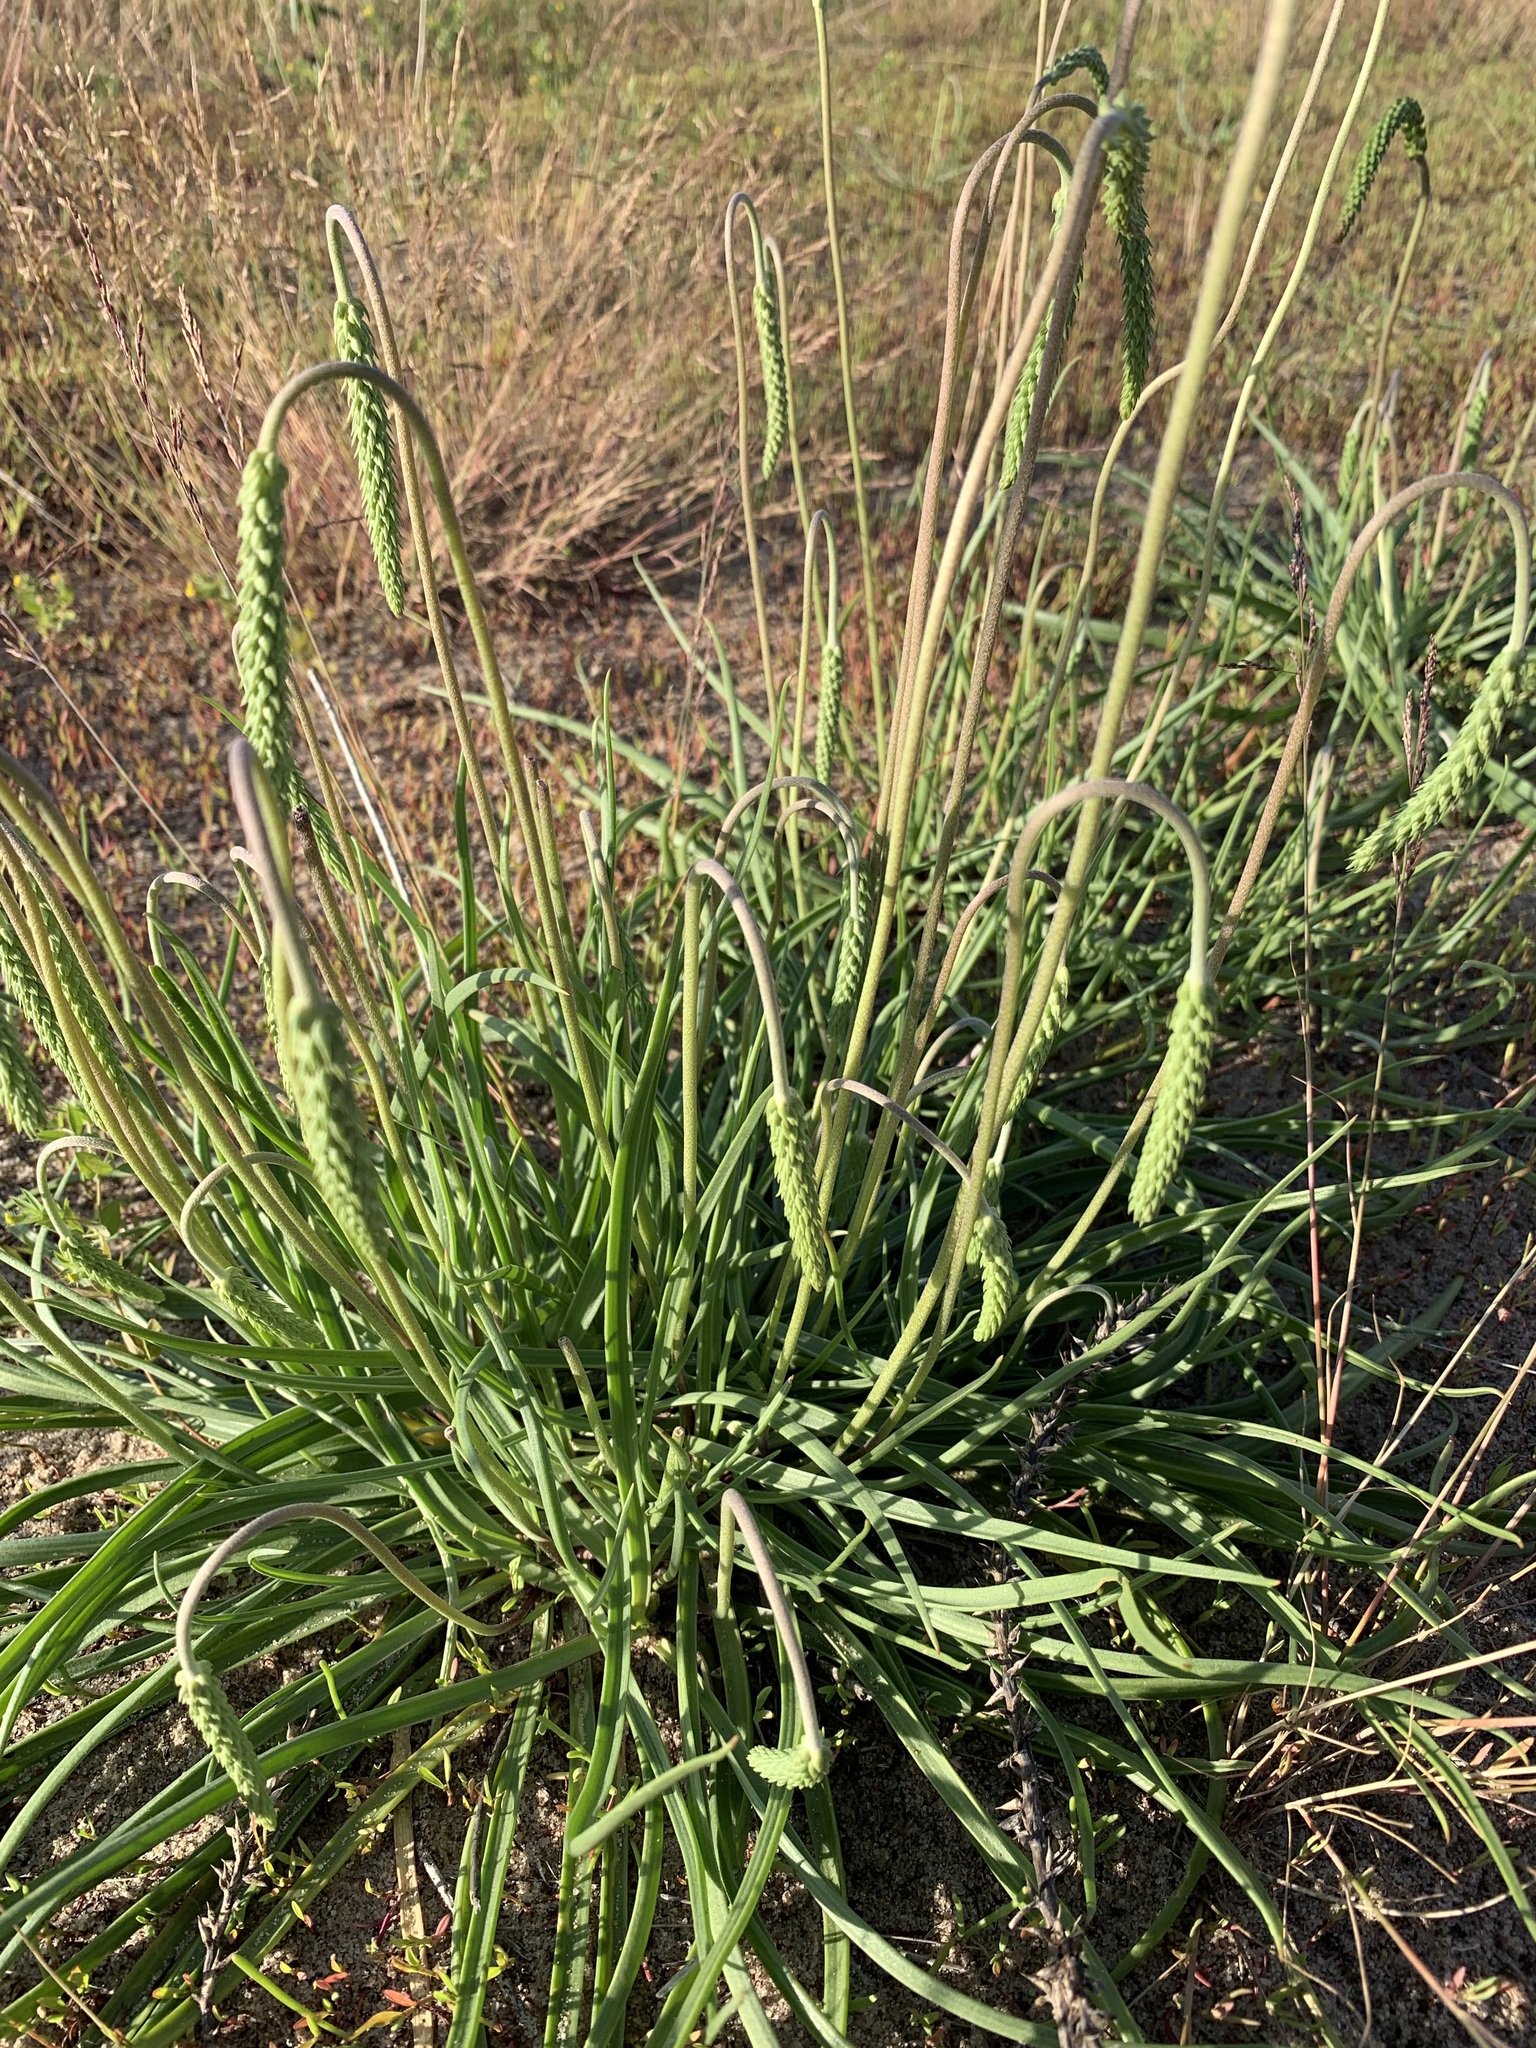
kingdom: Plantae
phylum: Tracheophyta
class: Magnoliopsida
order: Lamiales
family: Plantaginaceae
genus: Plantago
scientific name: Plantago salsa
